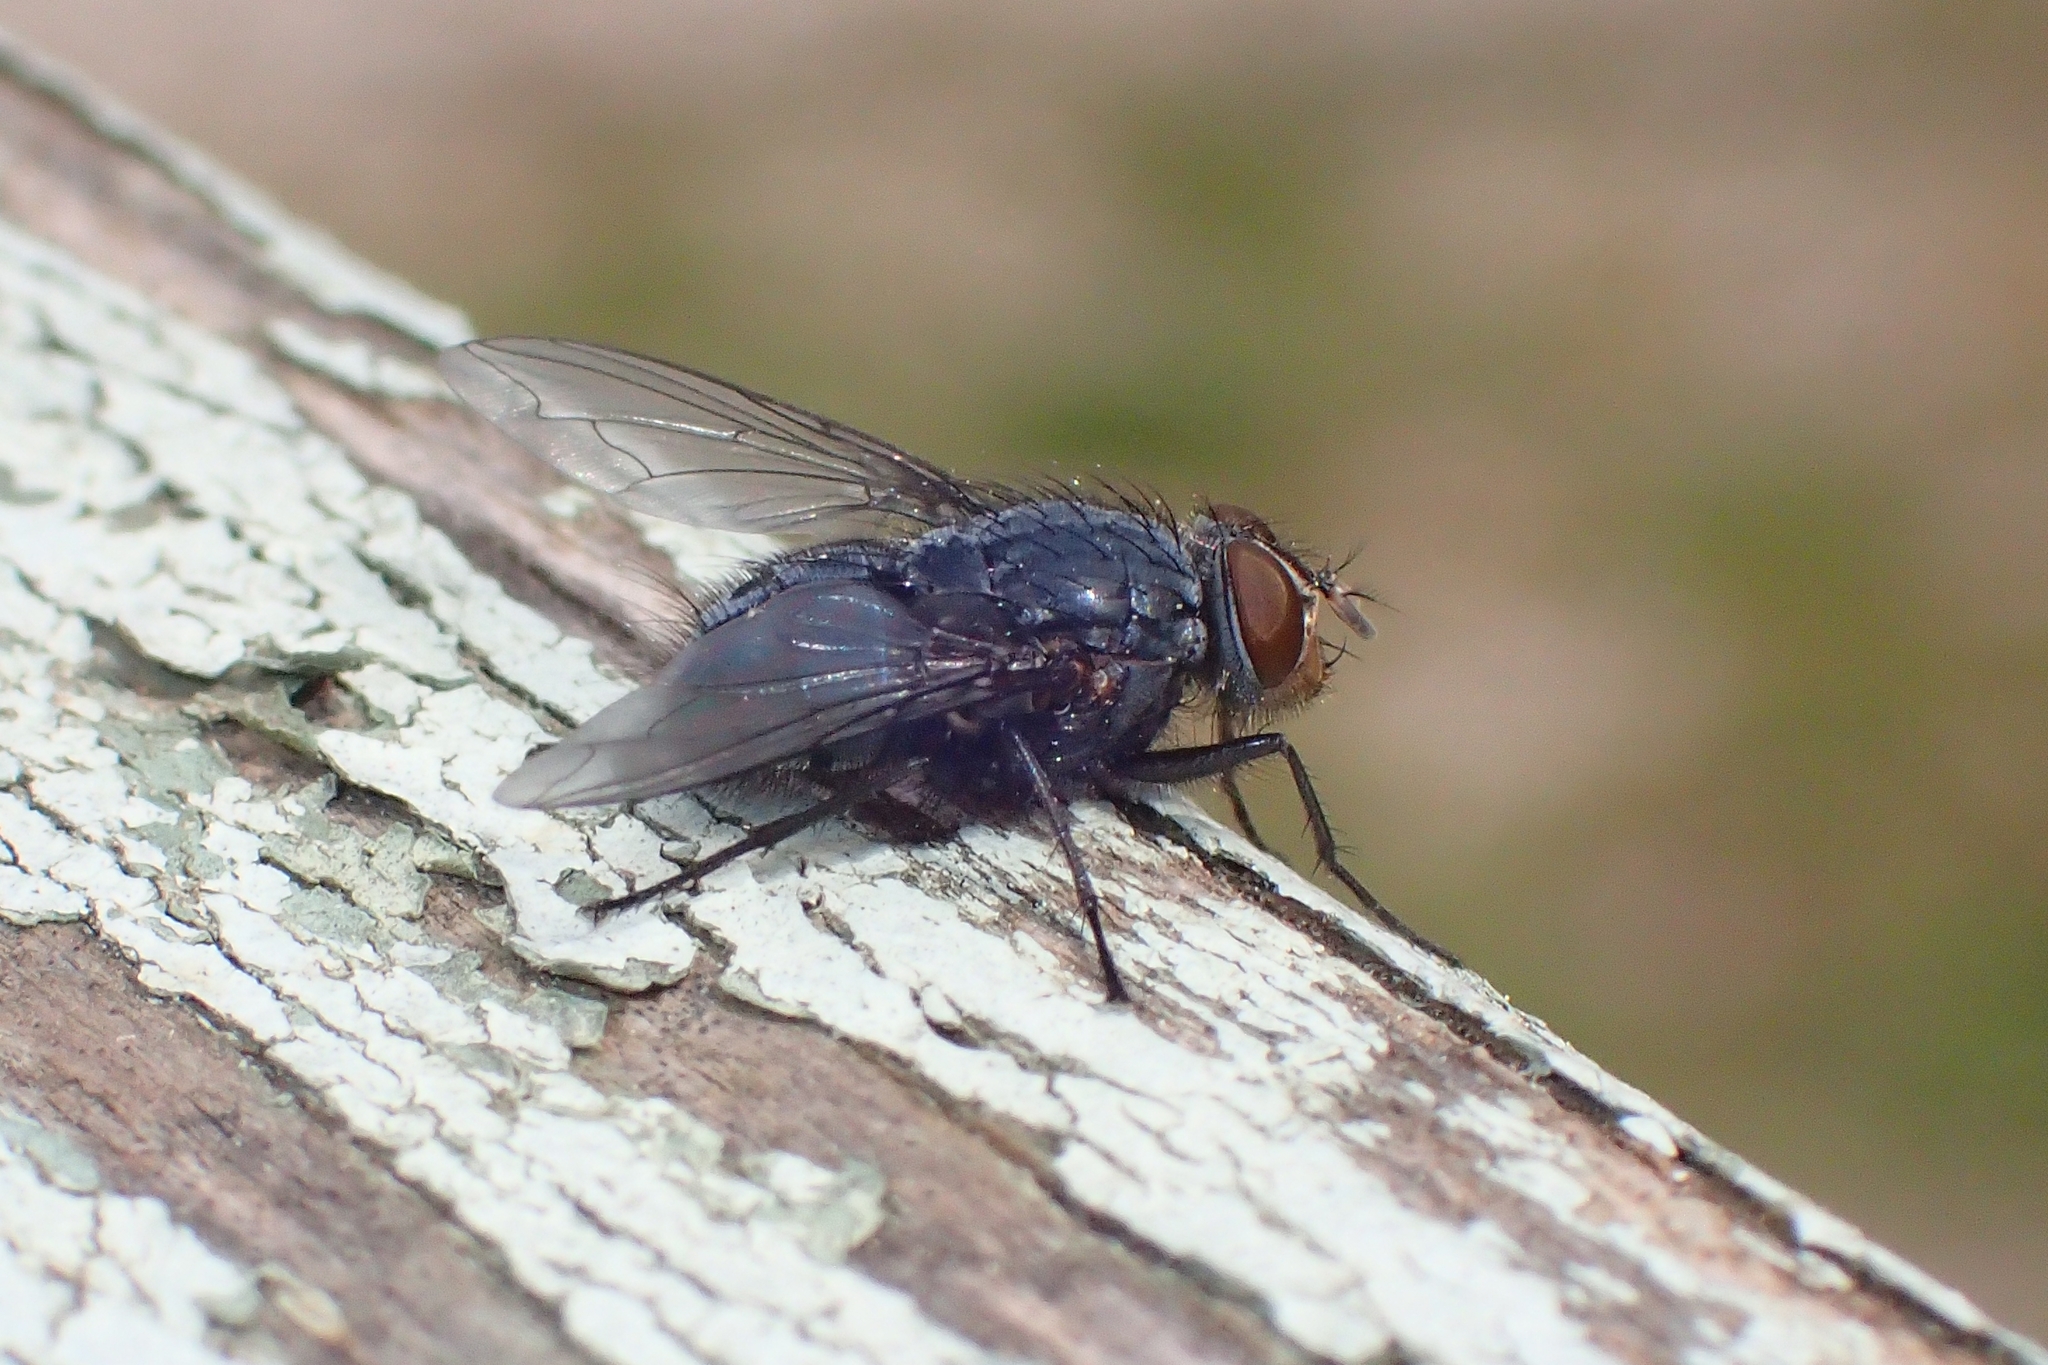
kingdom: Animalia
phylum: Arthropoda
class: Insecta
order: Diptera
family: Calliphoridae
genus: Calliphora
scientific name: Calliphora vicina
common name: Common blow flie
